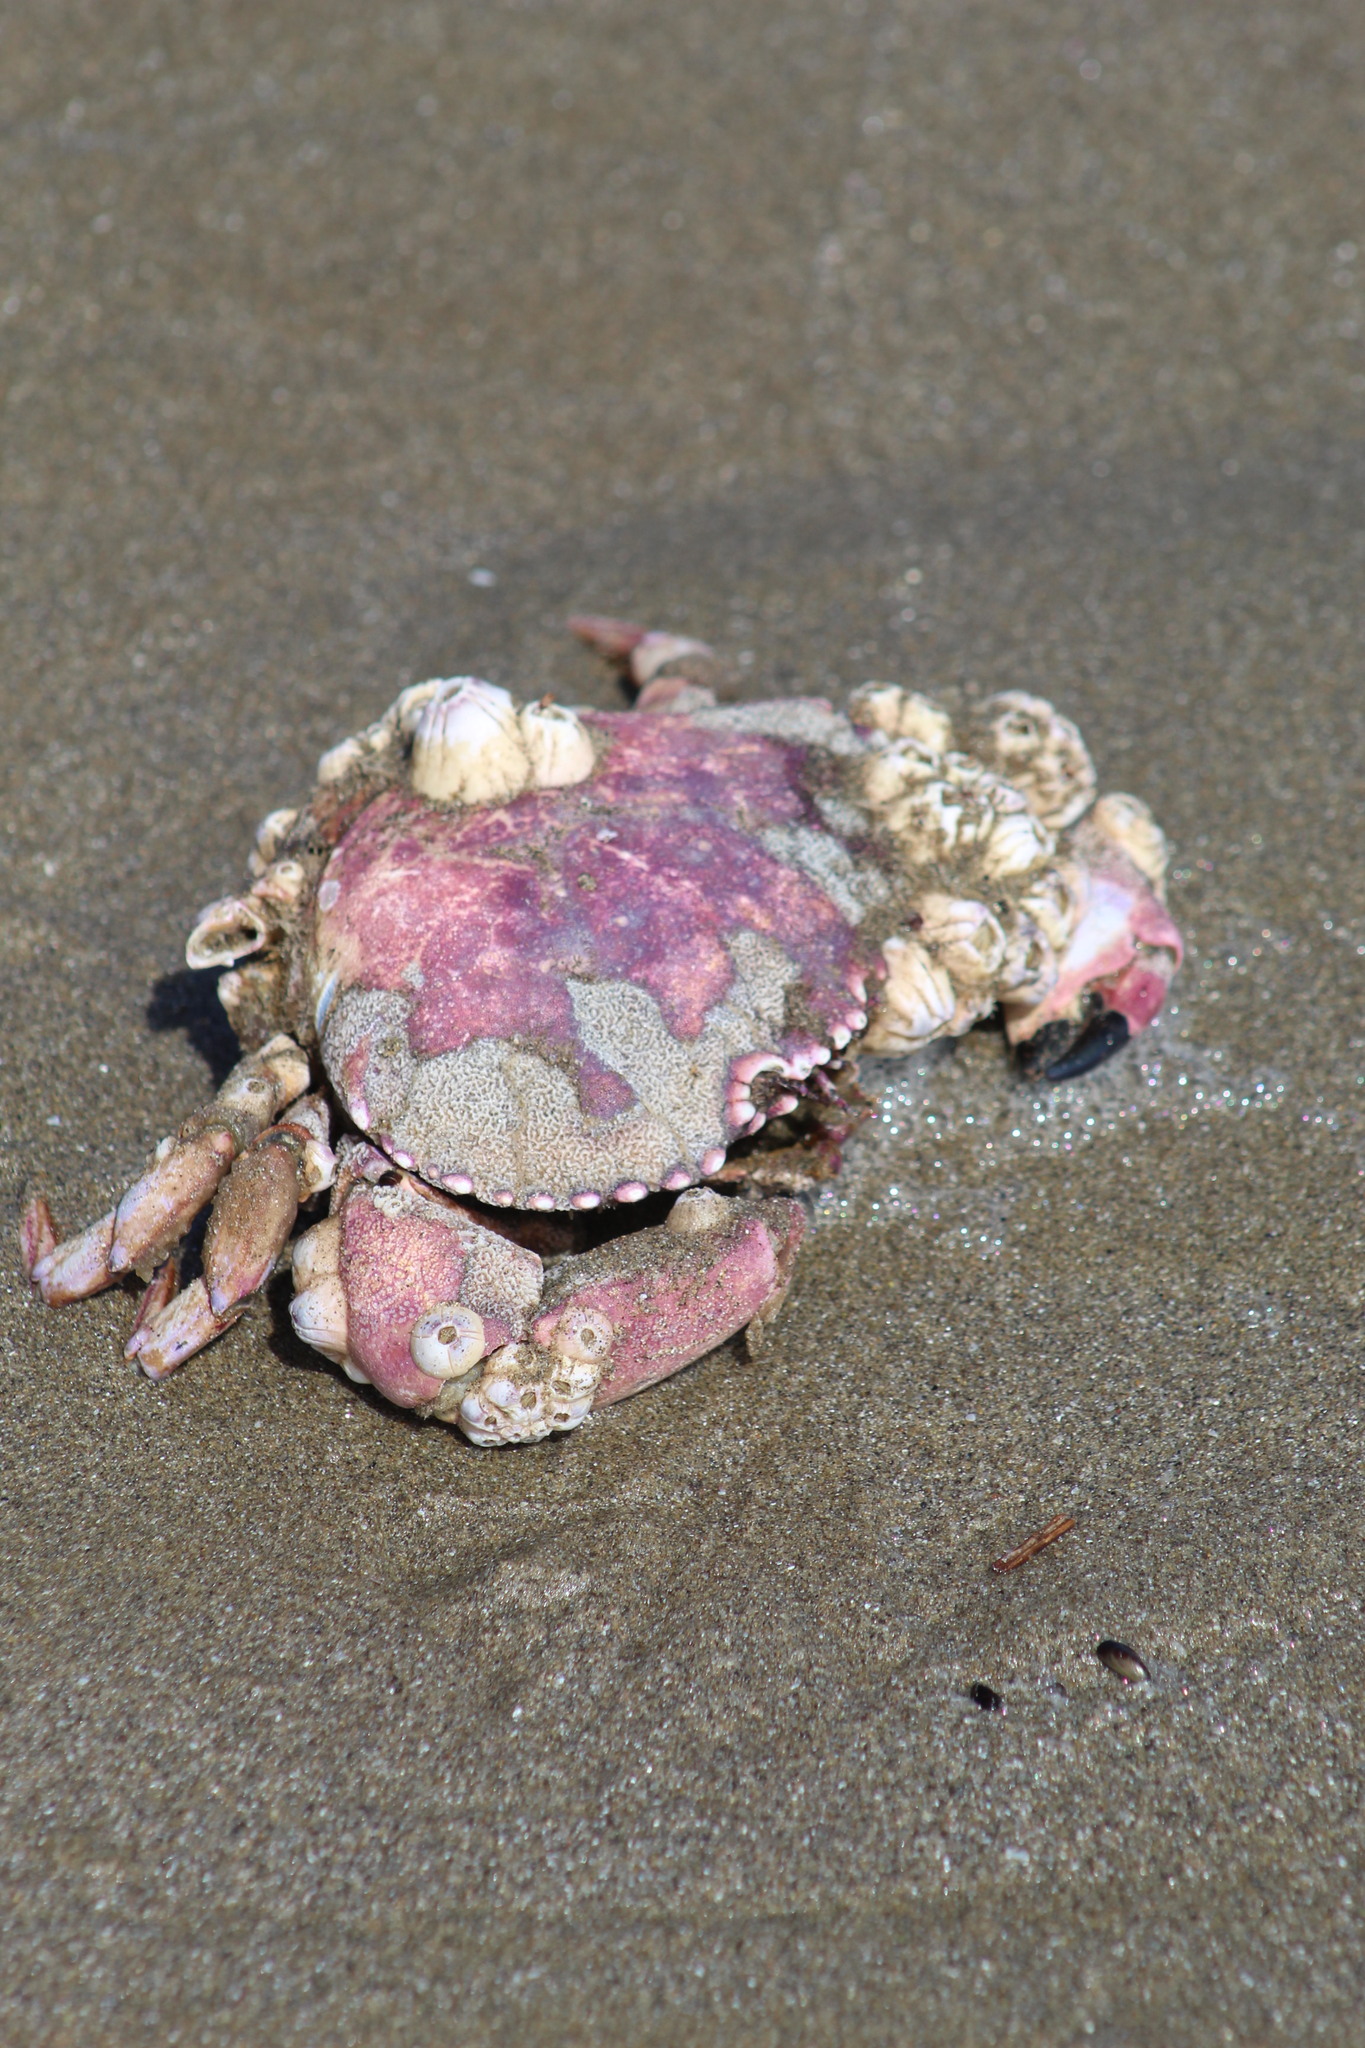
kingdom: Animalia
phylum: Arthropoda
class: Malacostraca
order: Decapoda
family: Platyxanthidae
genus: Platyxanthus
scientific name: Platyxanthus orbignyi
